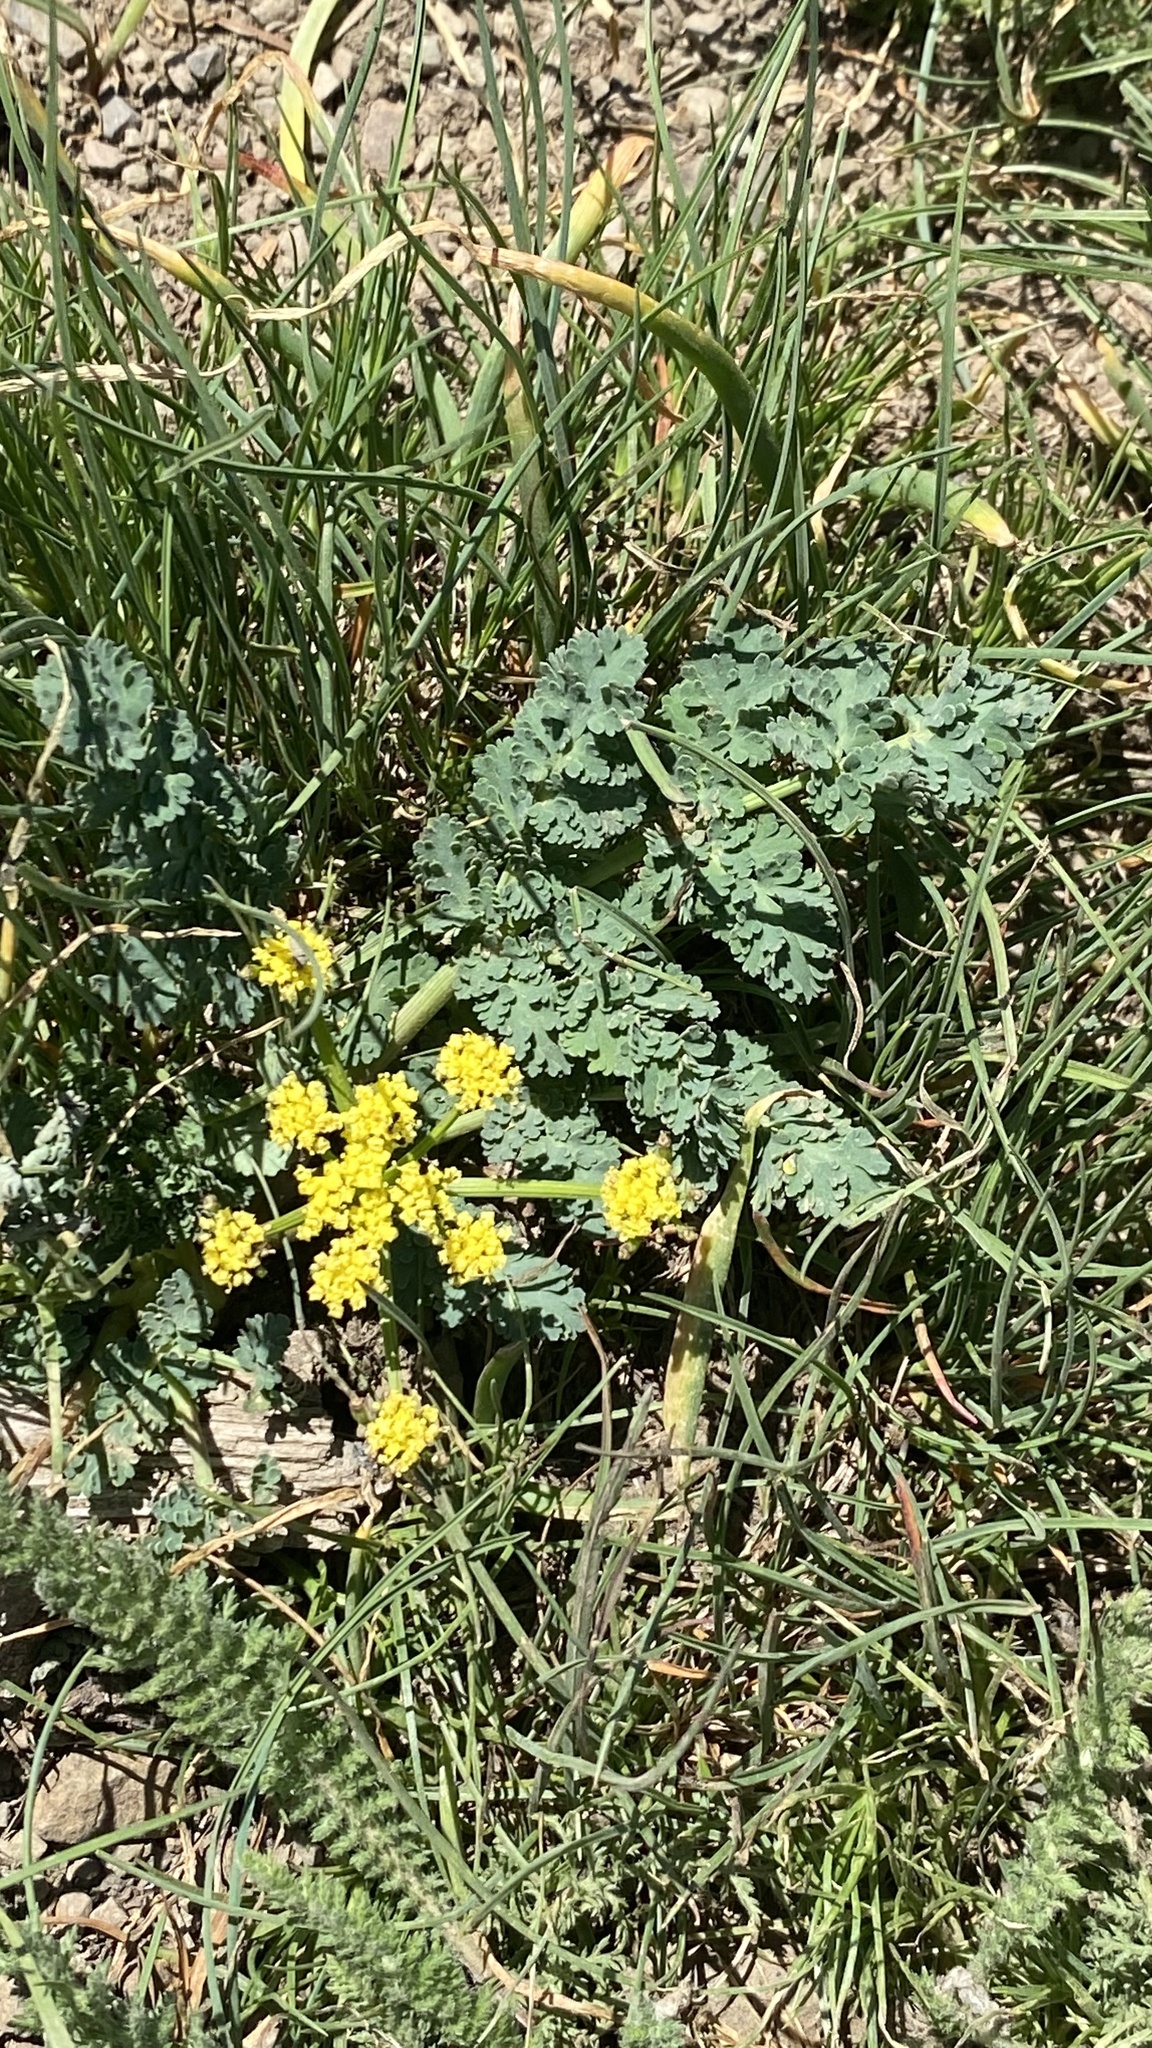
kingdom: Plantae
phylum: Tracheophyta
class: Magnoliopsida
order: Apiales
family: Apiaceae
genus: Lomatium
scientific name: Lomatium martindalei
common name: Cascade desert-parsley
